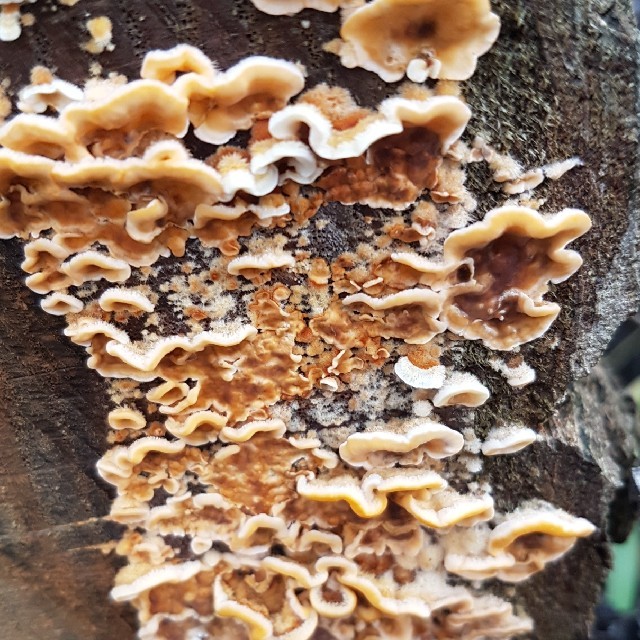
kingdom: Fungi
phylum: Basidiomycota
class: Agaricomycetes
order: Russulales
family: Stereaceae
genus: Stereum
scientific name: Stereum hirsutum
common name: Hairy curtain crust
